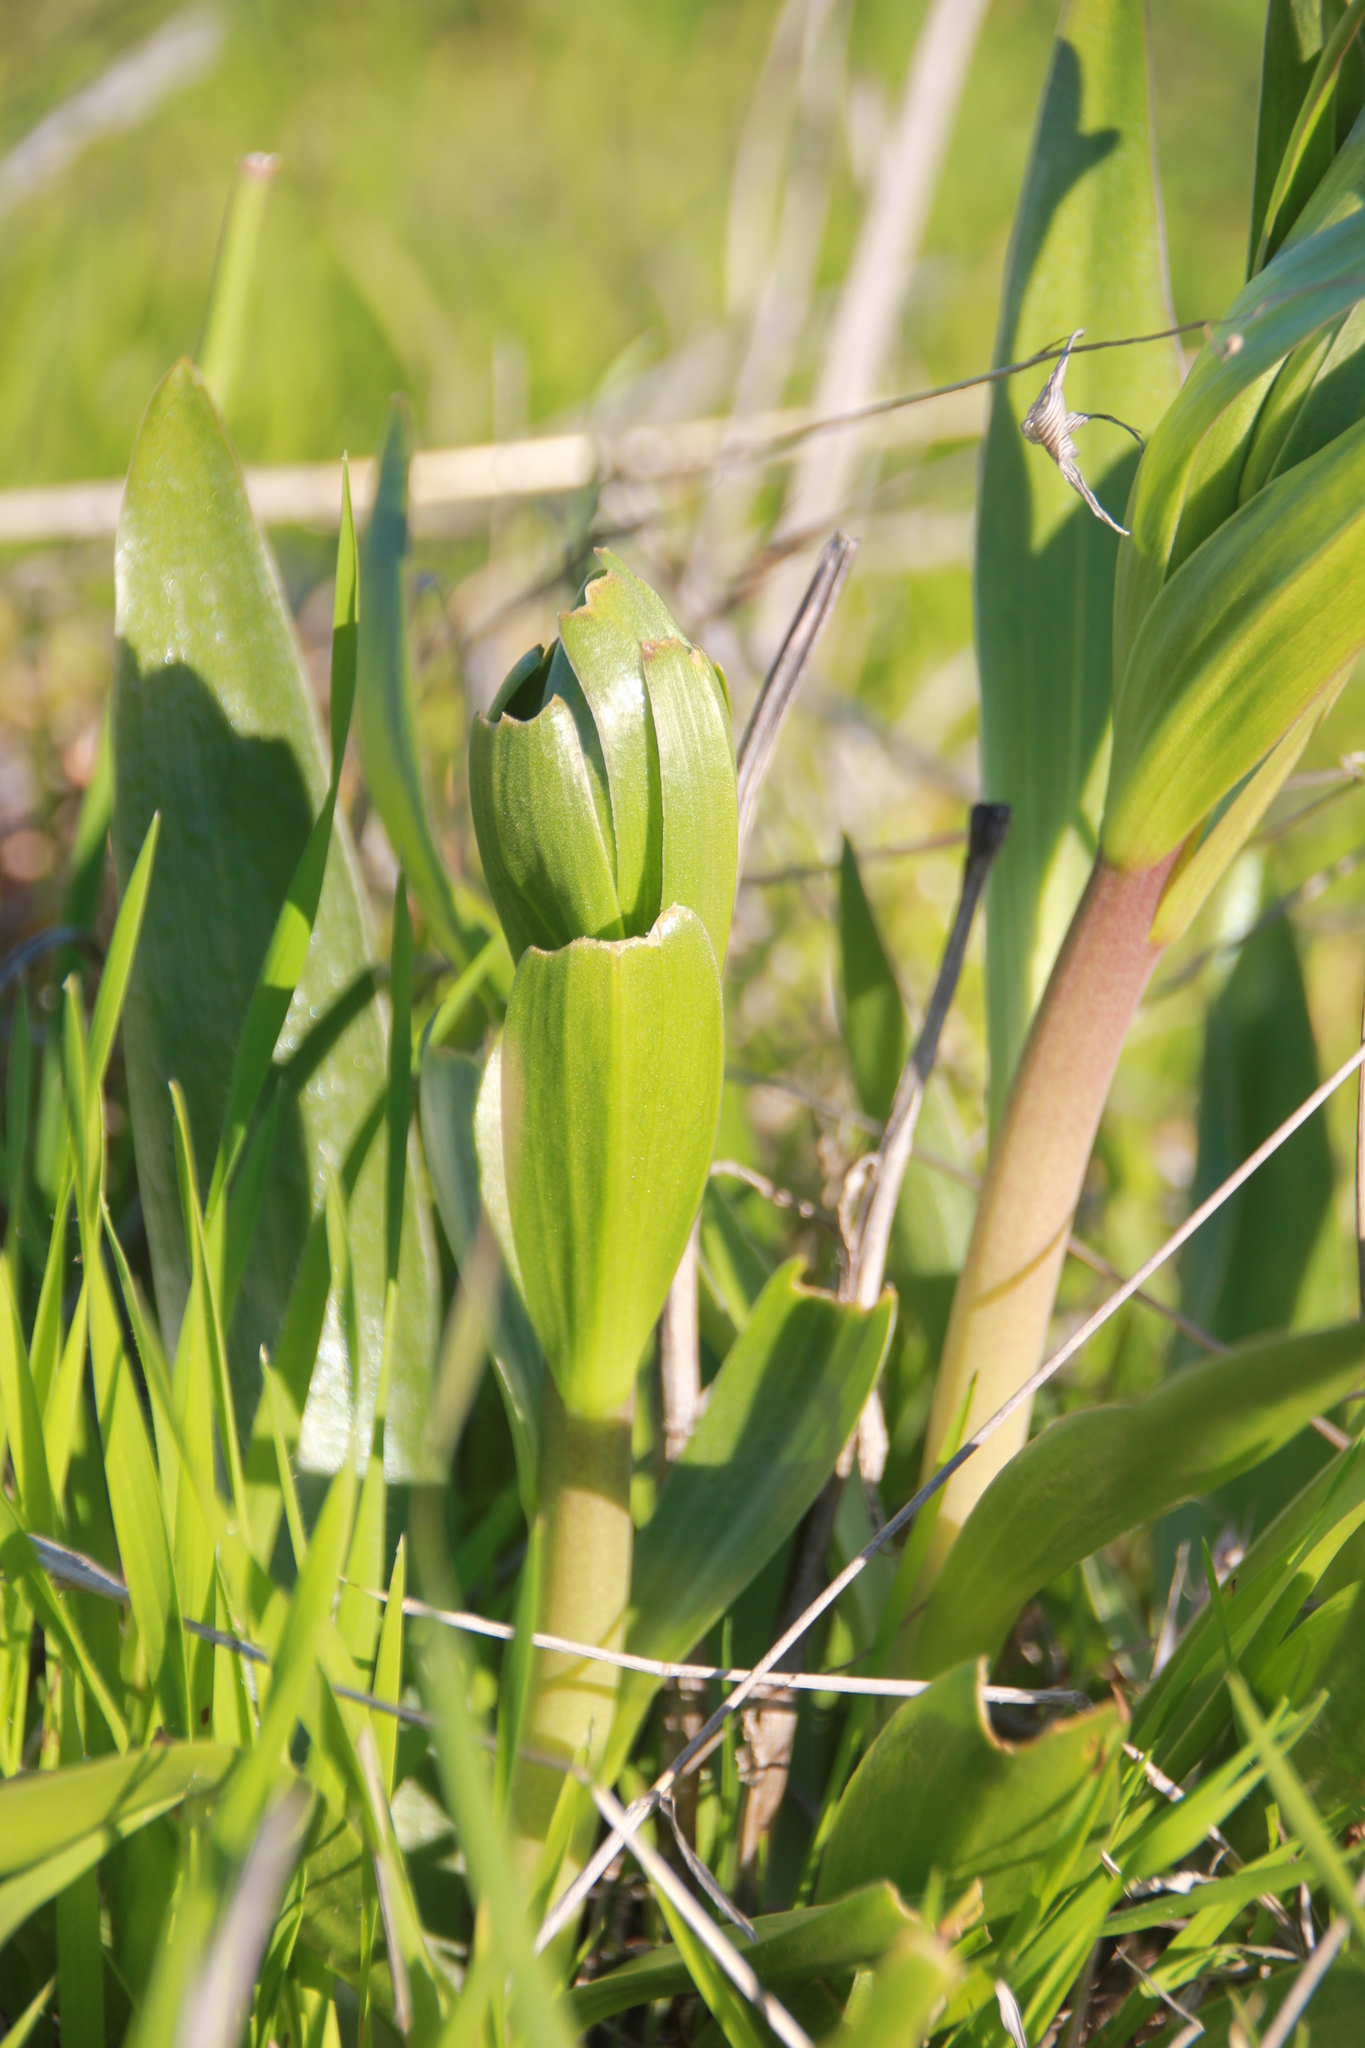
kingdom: Plantae
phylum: Tracheophyta
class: Liliopsida
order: Liliales
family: Liliaceae
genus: Fritillaria
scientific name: Fritillaria biflora
